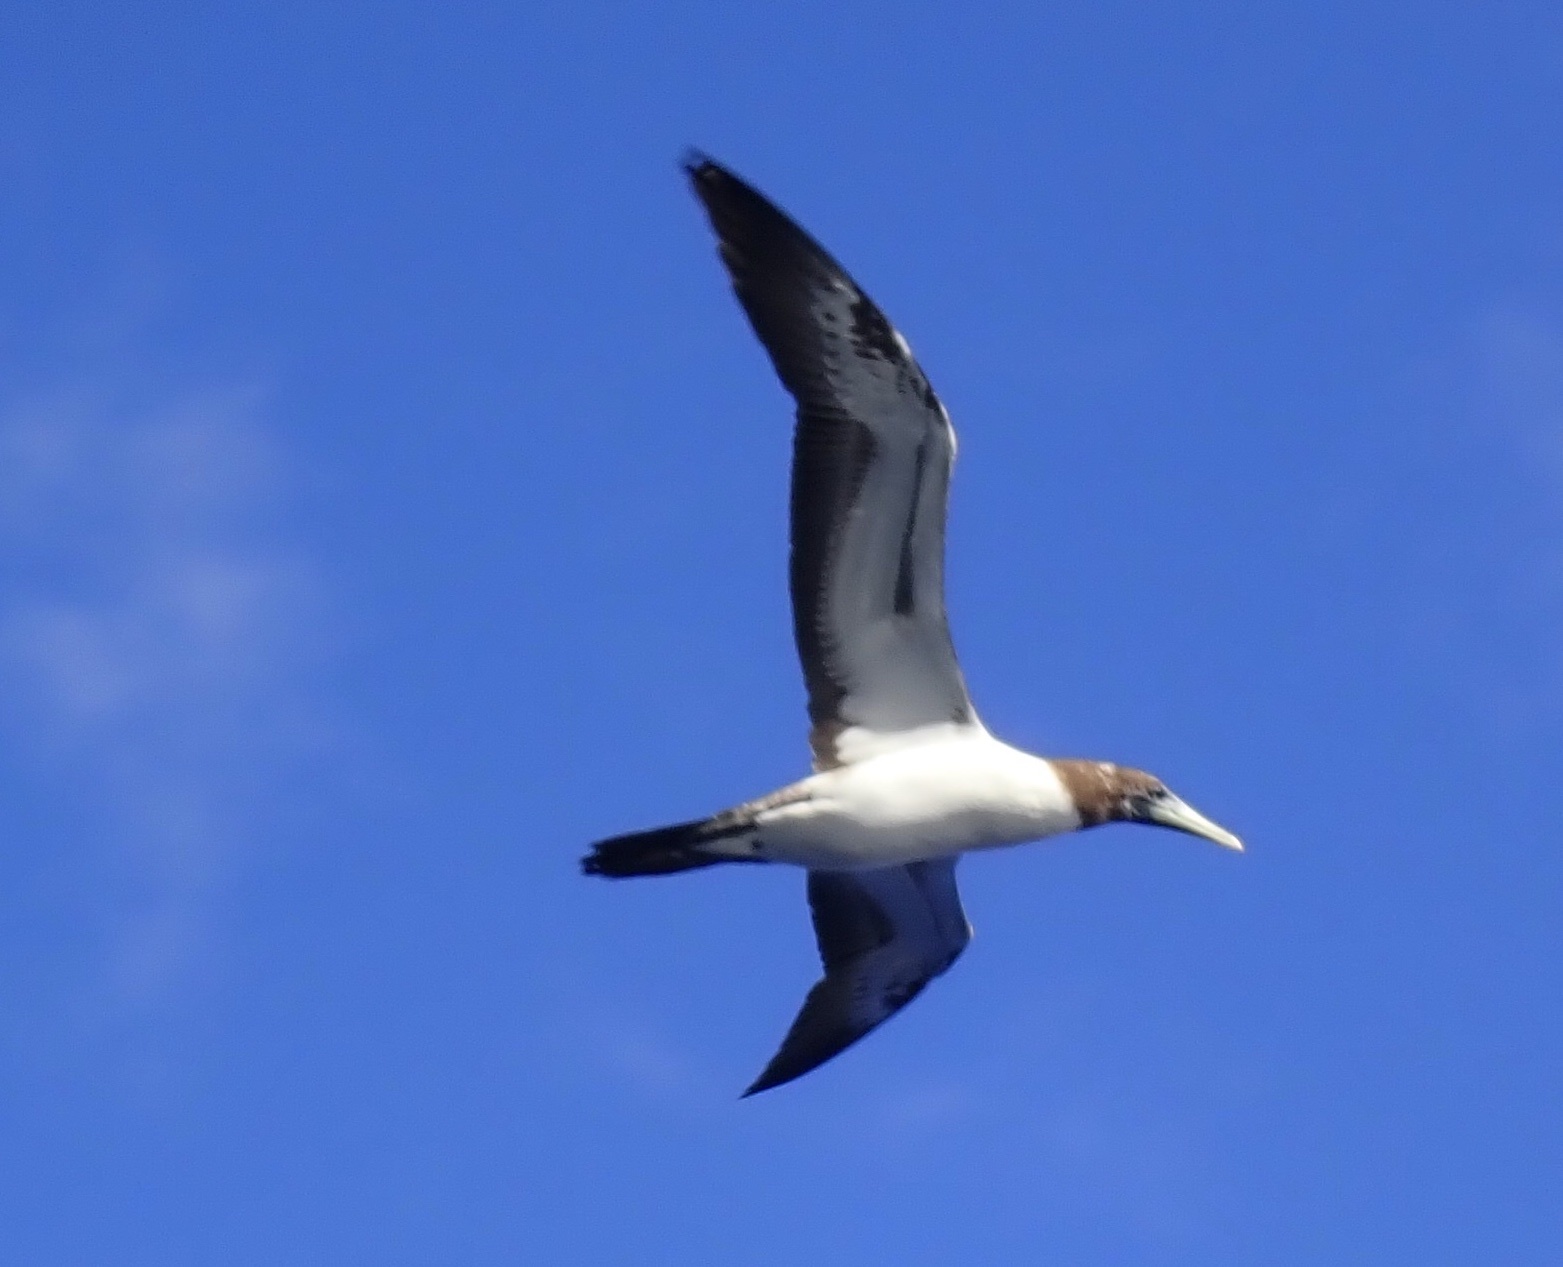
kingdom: Animalia
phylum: Chordata
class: Aves
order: Suliformes
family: Sulidae
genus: Sula
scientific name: Sula
